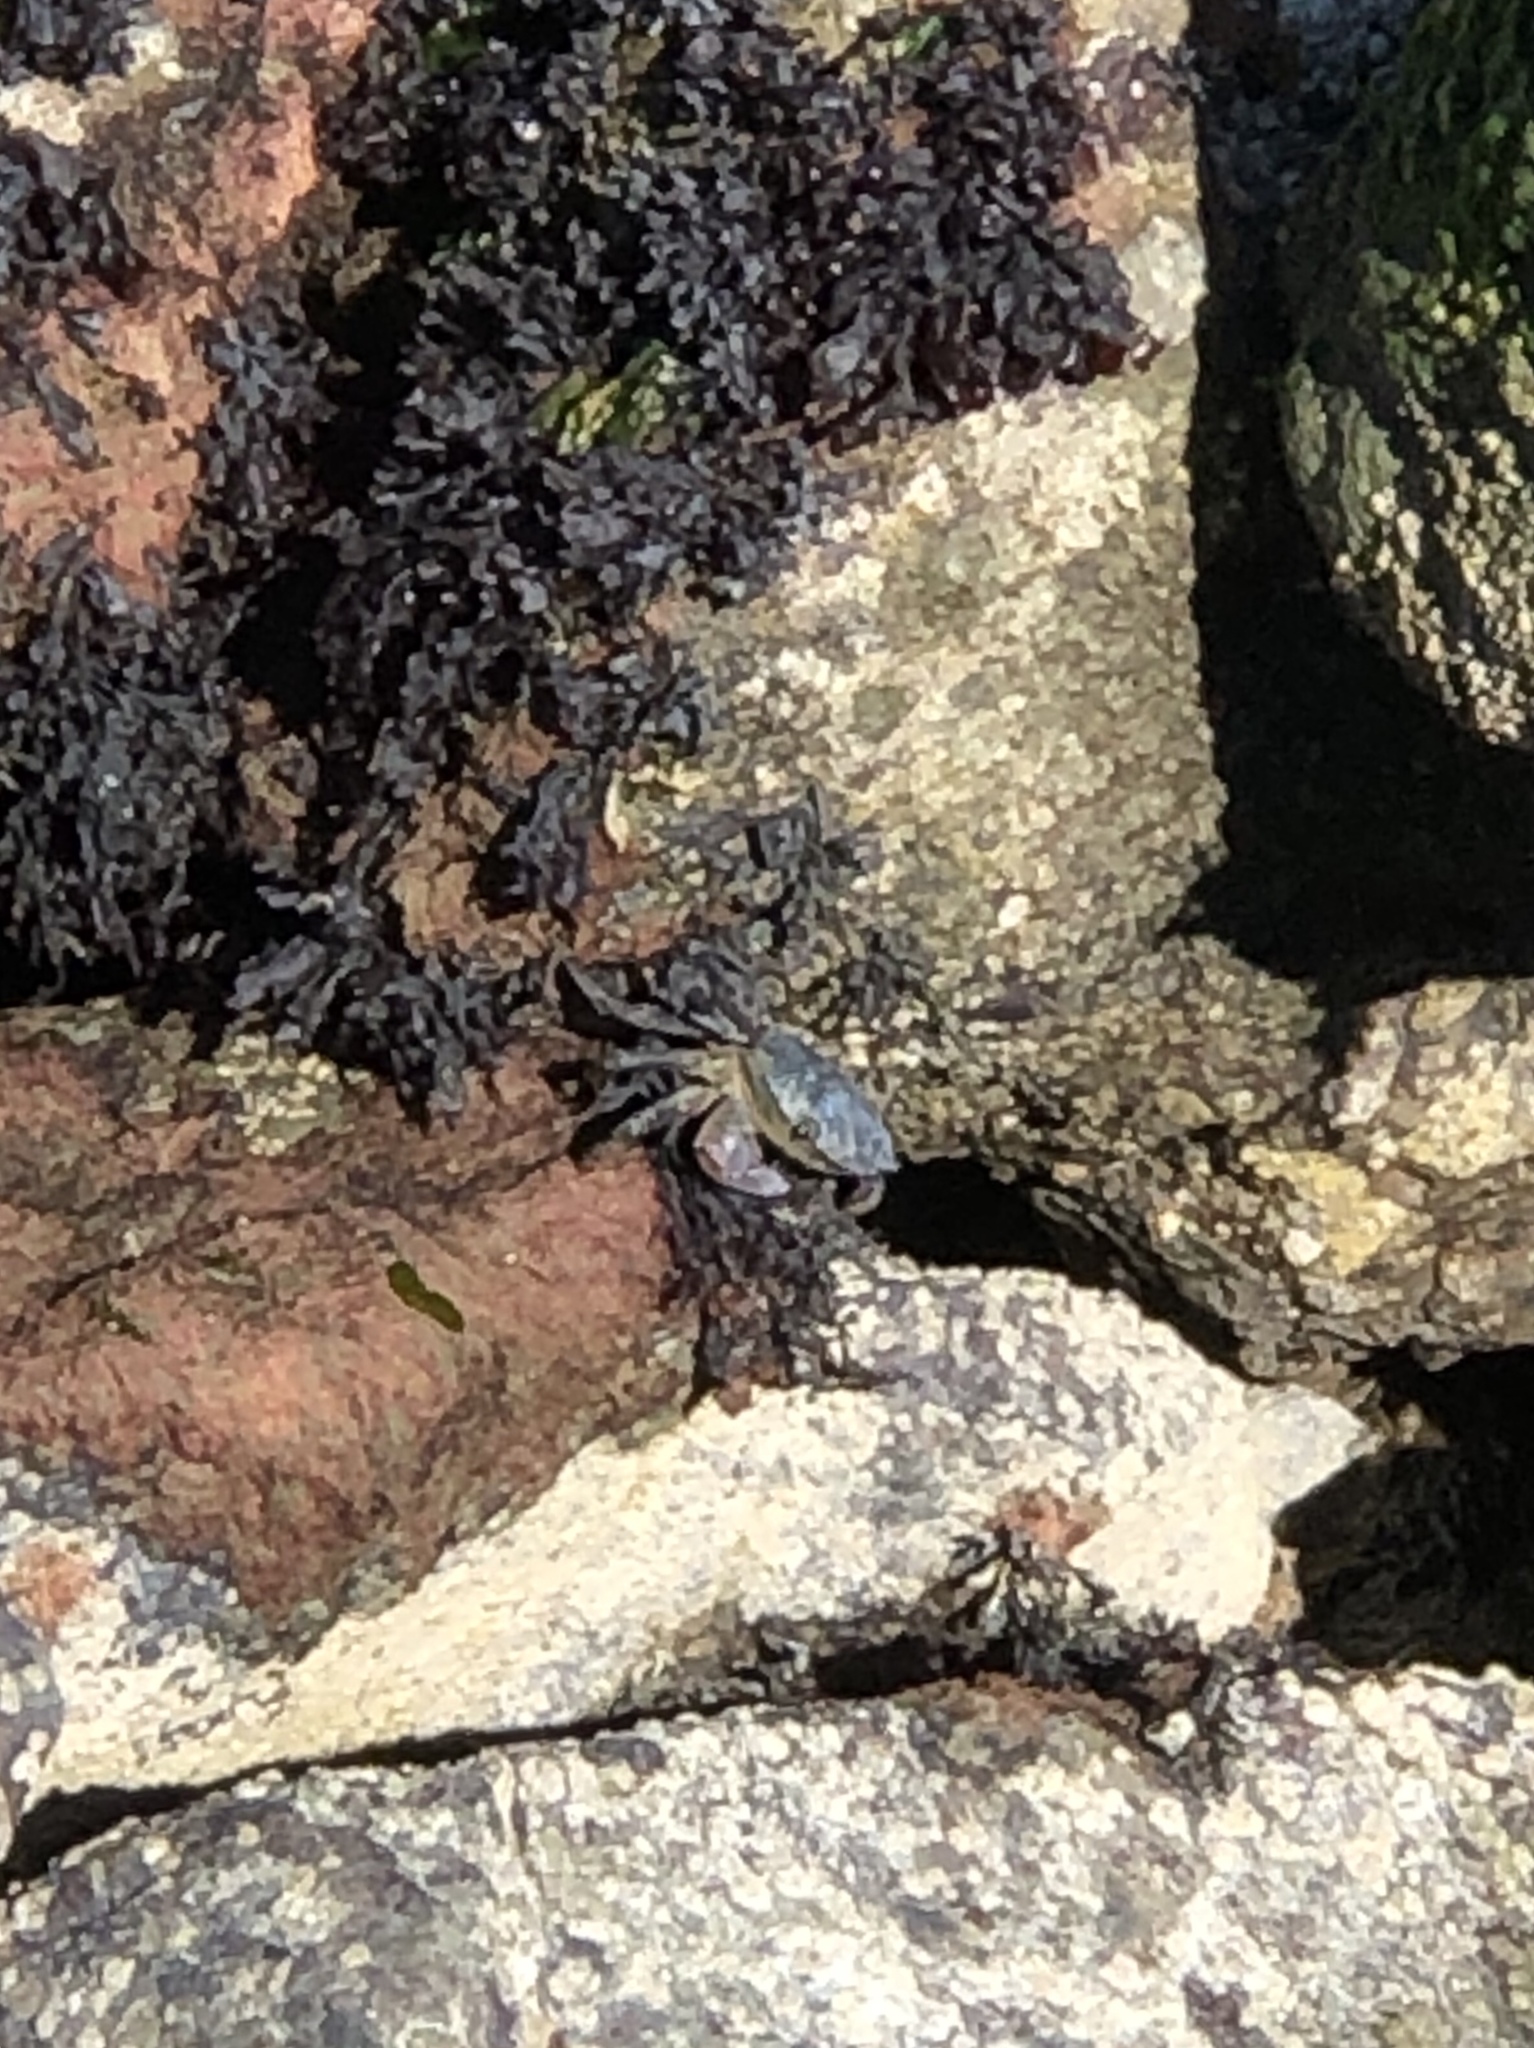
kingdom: Animalia
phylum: Arthropoda
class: Malacostraca
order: Decapoda
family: Grapsidae
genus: Pachygrapsus
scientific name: Pachygrapsus crassipes
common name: Striped shore crab
